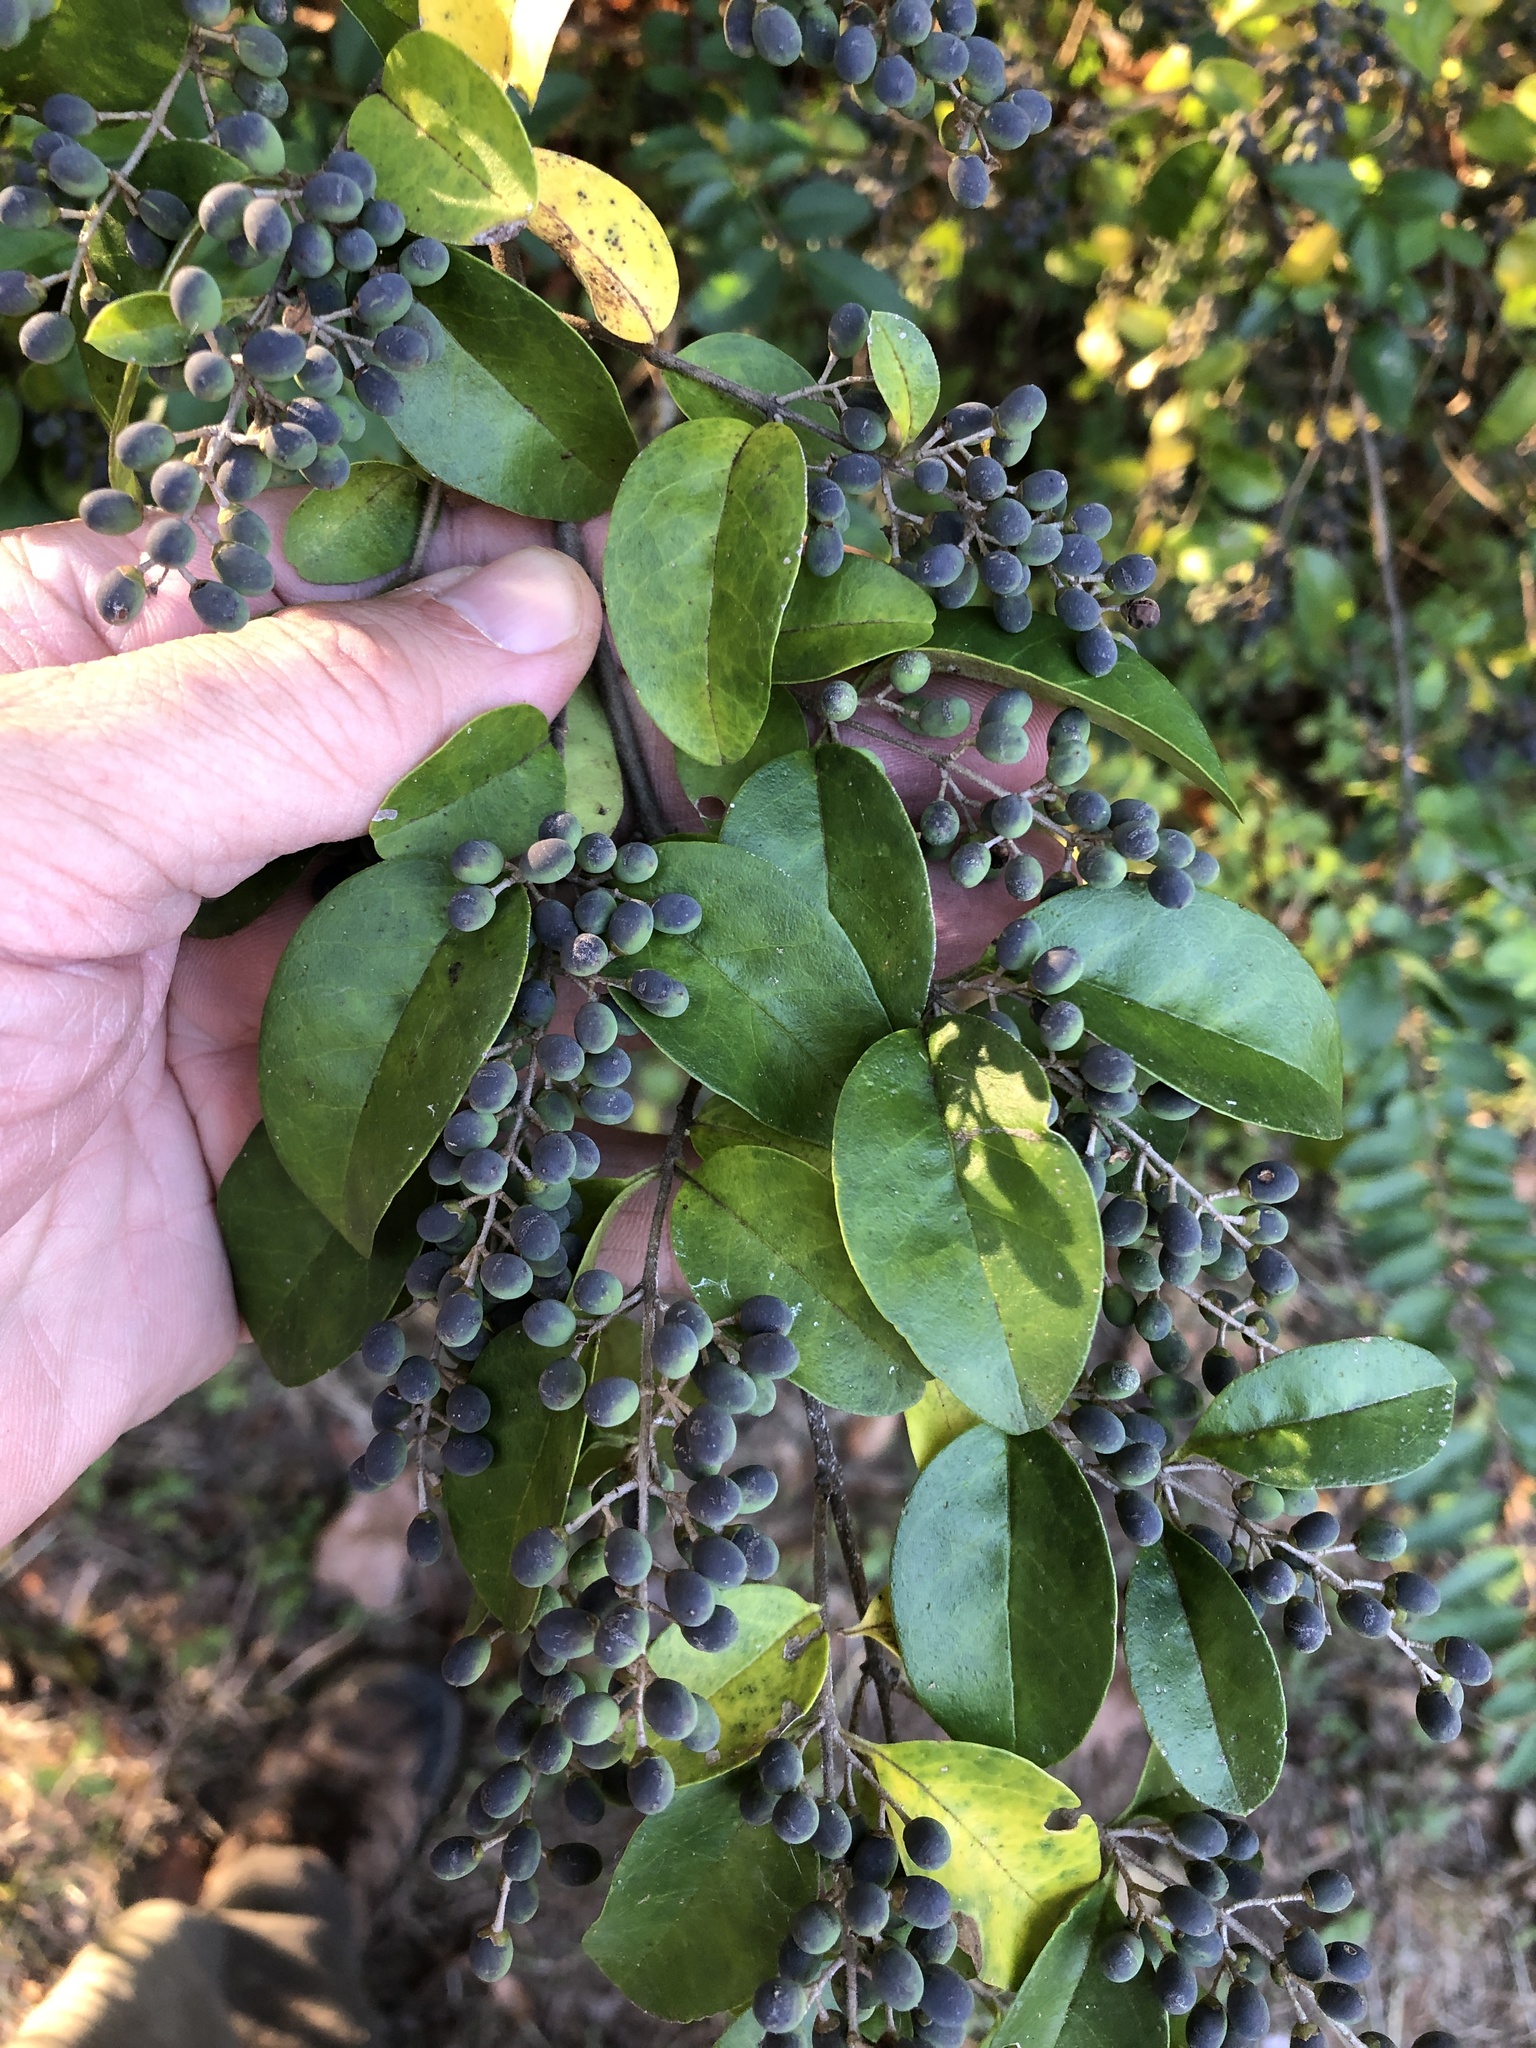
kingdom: Plantae
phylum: Tracheophyta
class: Magnoliopsida
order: Lamiales
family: Oleaceae
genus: Ligustrum
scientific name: Ligustrum sinense
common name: Chinese privet
